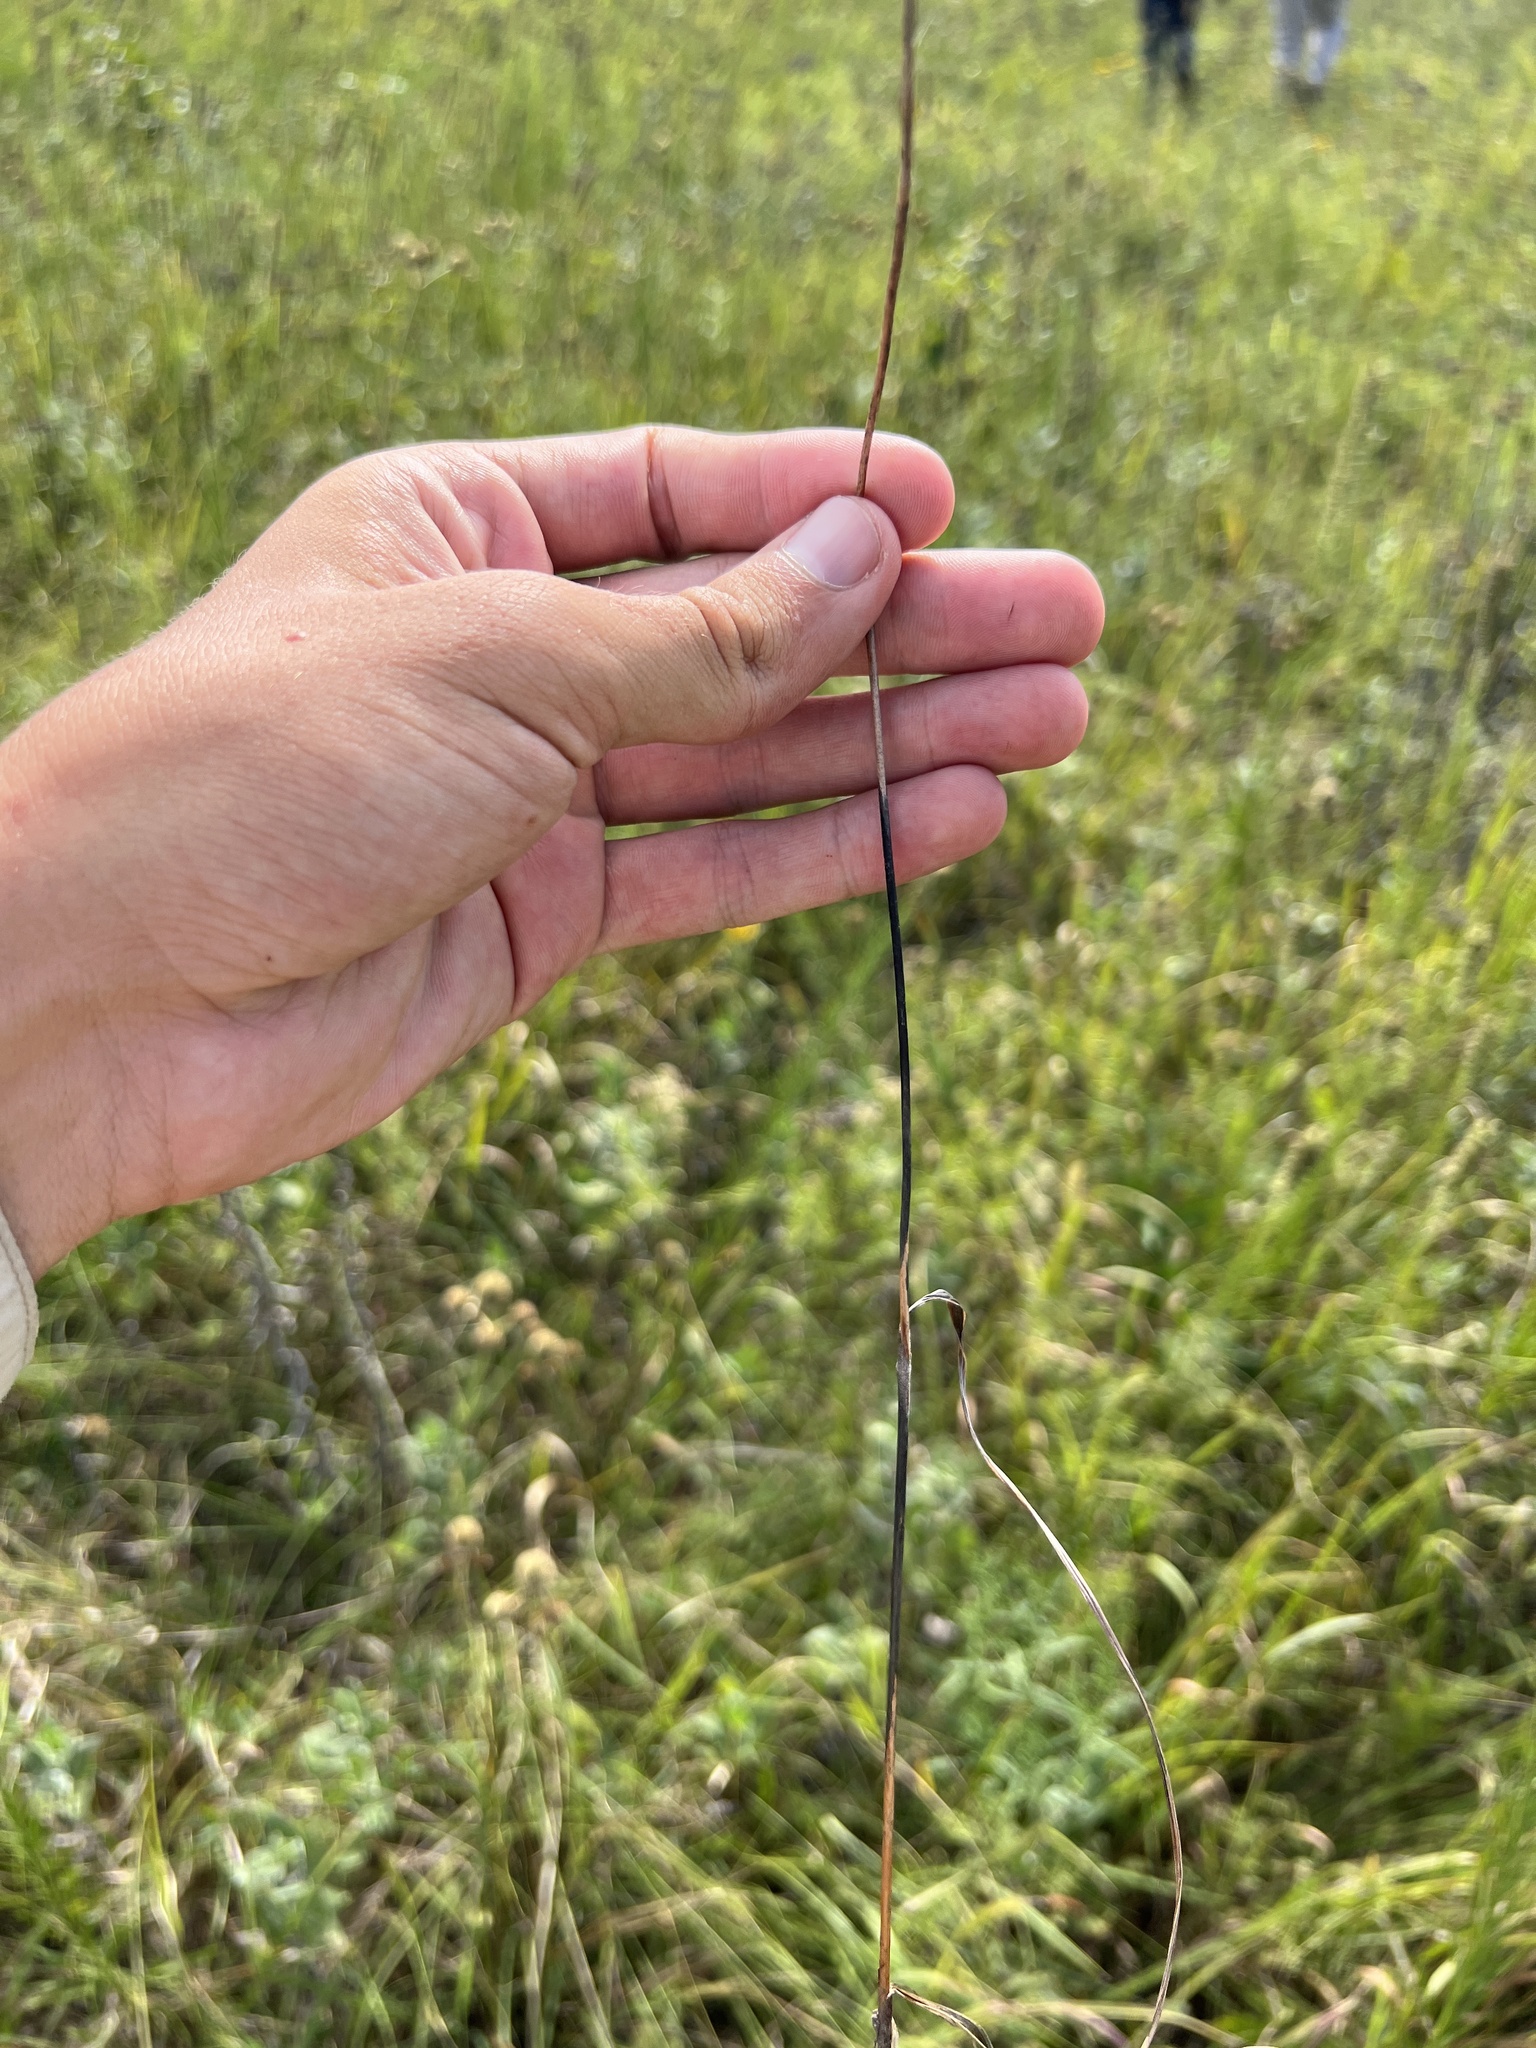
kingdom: Plantae
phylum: Tracheophyta
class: Liliopsida
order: Asparagales
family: Iridaceae
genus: Nemastylis
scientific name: Nemastylis nuttallii
